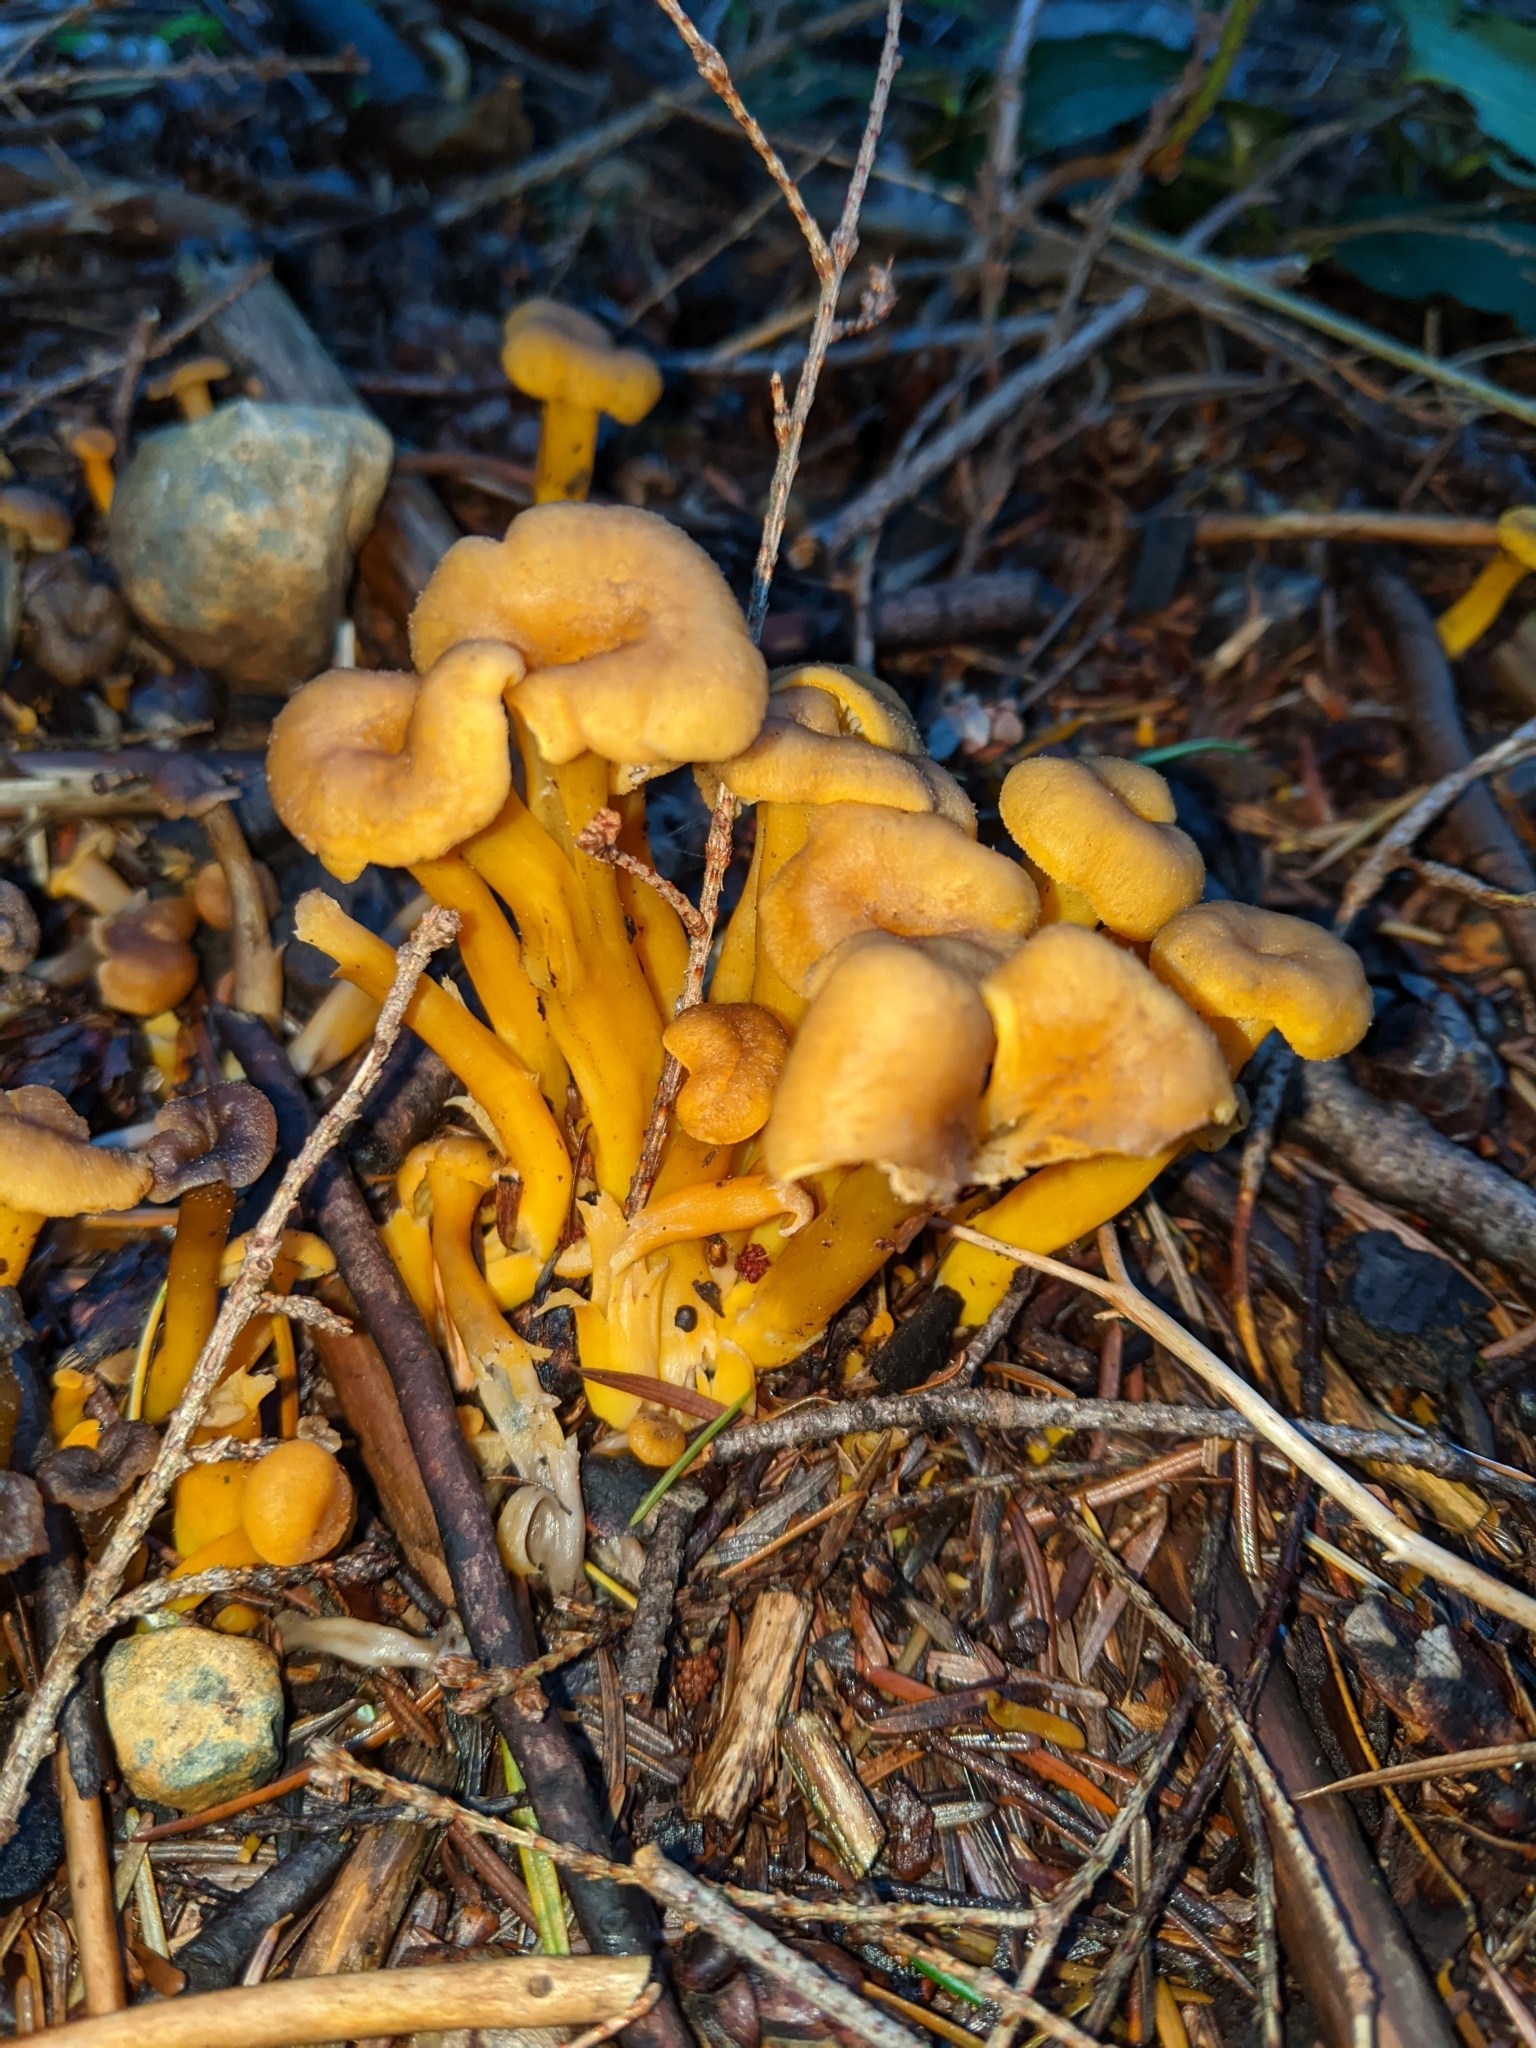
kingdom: Fungi
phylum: Basidiomycota
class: Agaricomycetes
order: Cantharellales
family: Hydnaceae
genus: Craterellus
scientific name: Craterellus tubaeformis
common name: Yellowfoot
